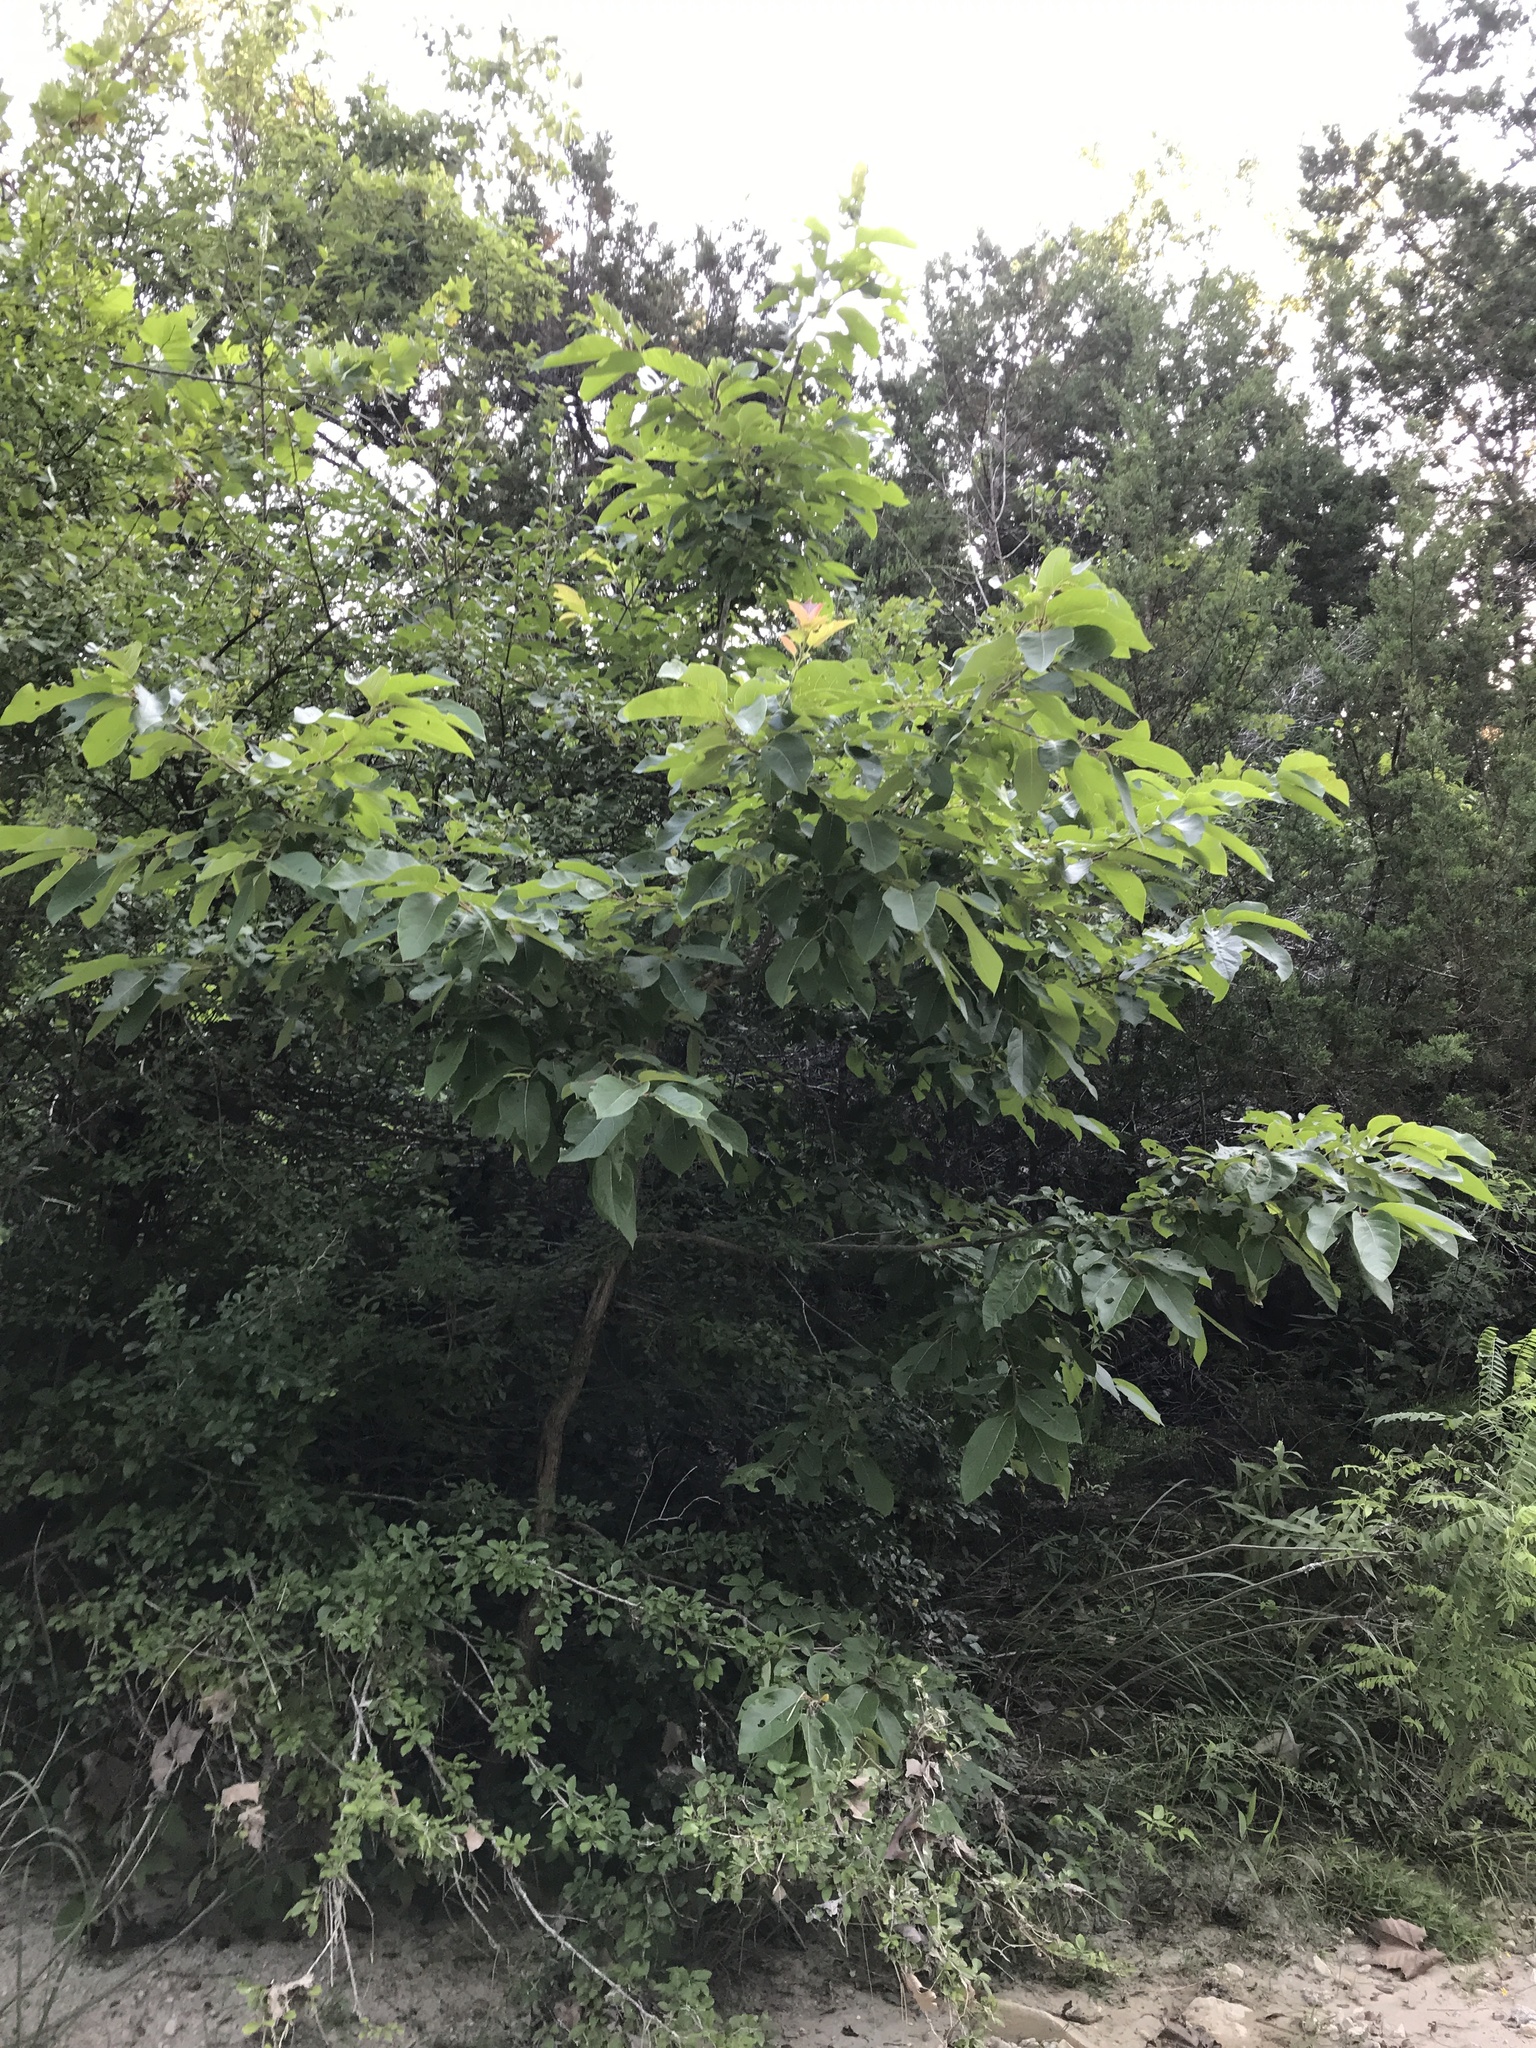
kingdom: Plantae
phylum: Tracheophyta
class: Magnoliopsida
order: Ericales
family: Ebenaceae
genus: Diospyros
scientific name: Diospyros virginiana
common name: Persimmon
